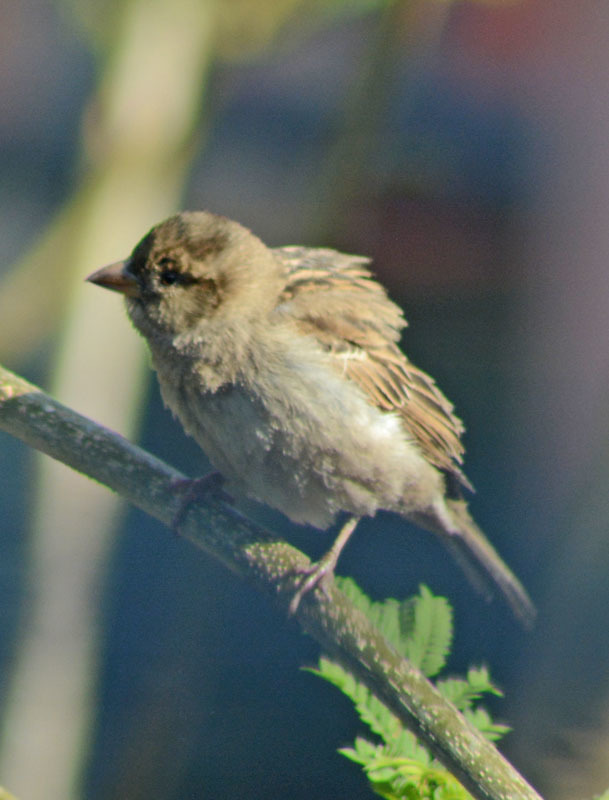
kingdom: Animalia
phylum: Chordata
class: Aves
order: Passeriformes
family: Passeridae
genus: Passer
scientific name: Passer domesticus
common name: House sparrow
